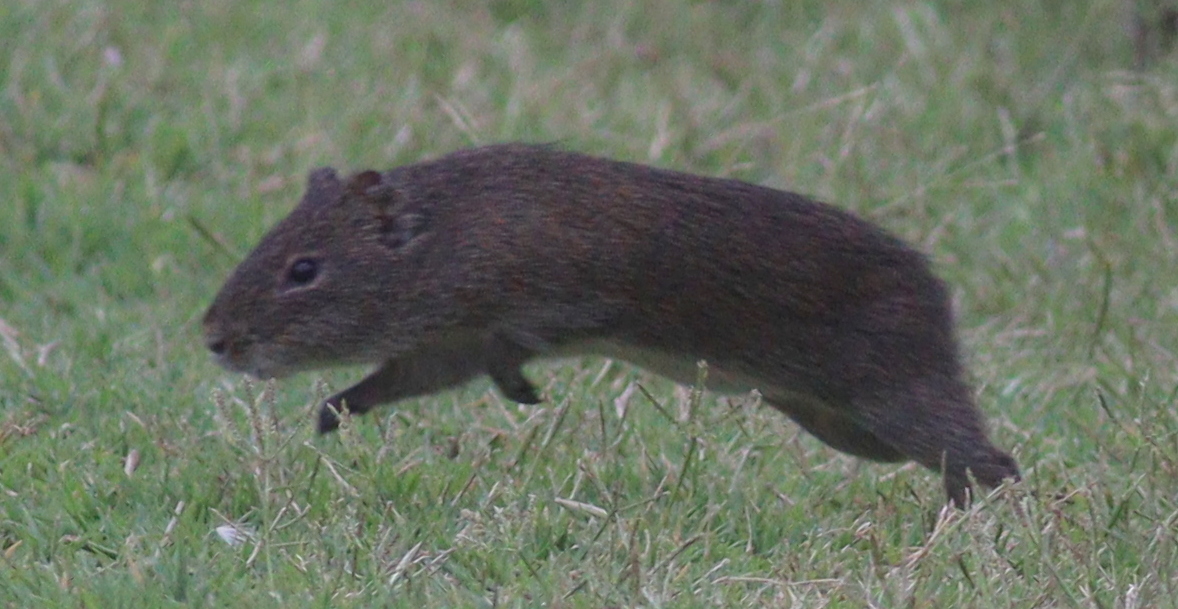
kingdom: Animalia
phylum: Chordata
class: Mammalia
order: Rodentia
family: Caviidae
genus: Cavia
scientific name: Cavia aperea
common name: Brazilian guinea pig
